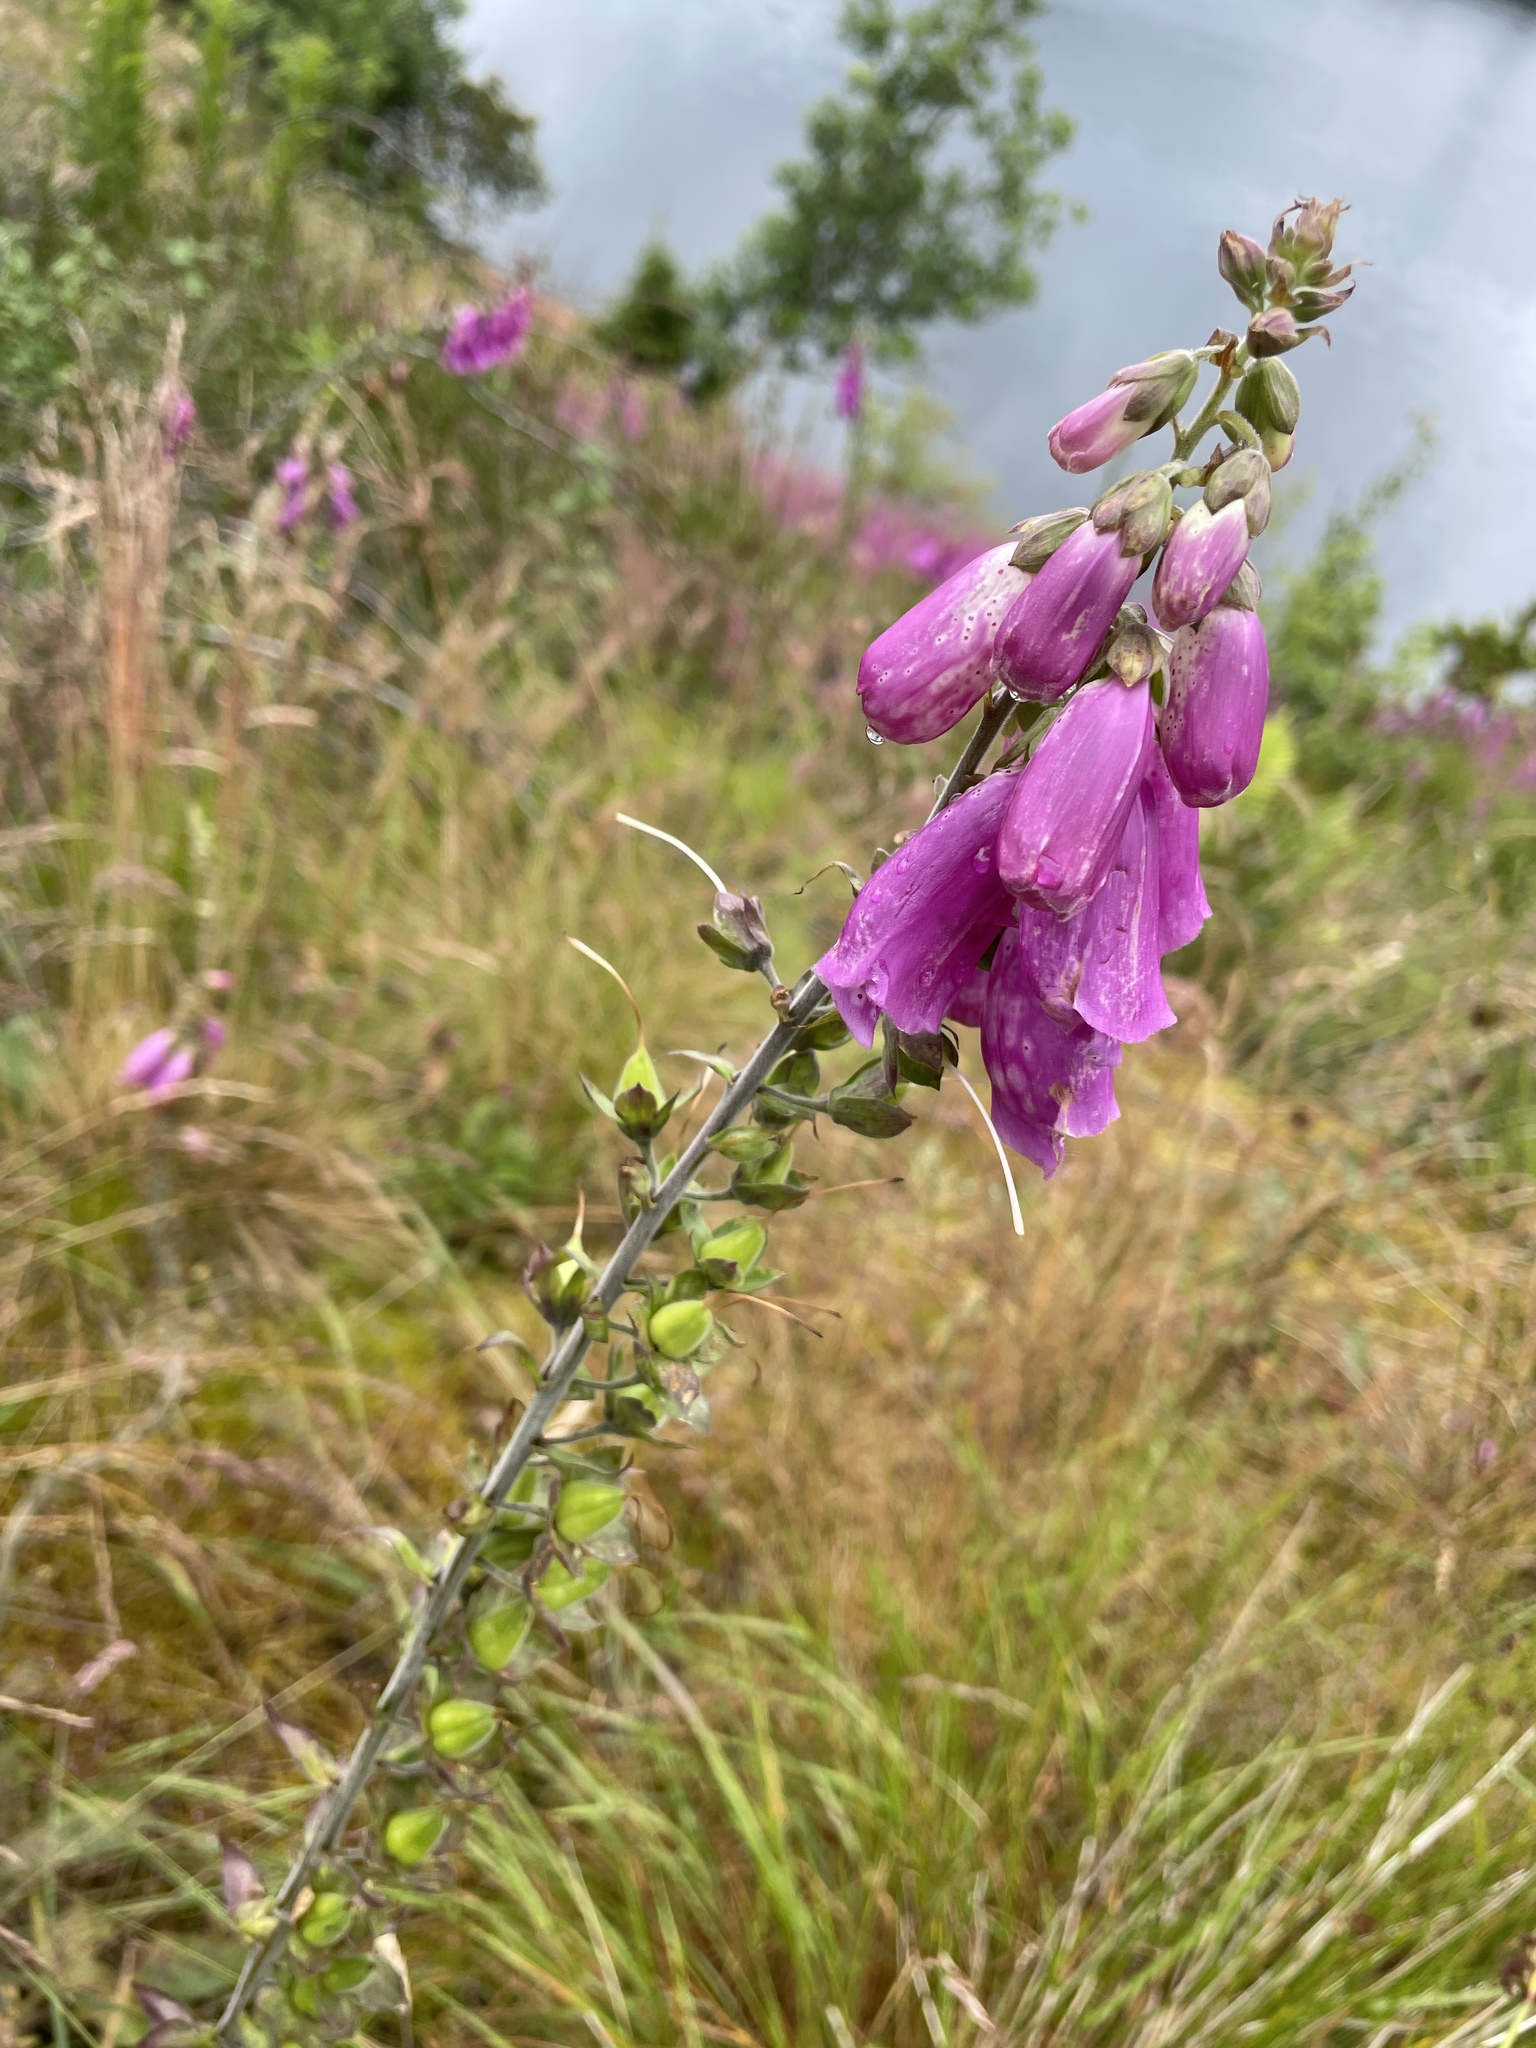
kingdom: Plantae
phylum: Tracheophyta
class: Magnoliopsida
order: Lamiales
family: Plantaginaceae
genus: Digitalis
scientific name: Digitalis purpurea
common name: Foxglove
